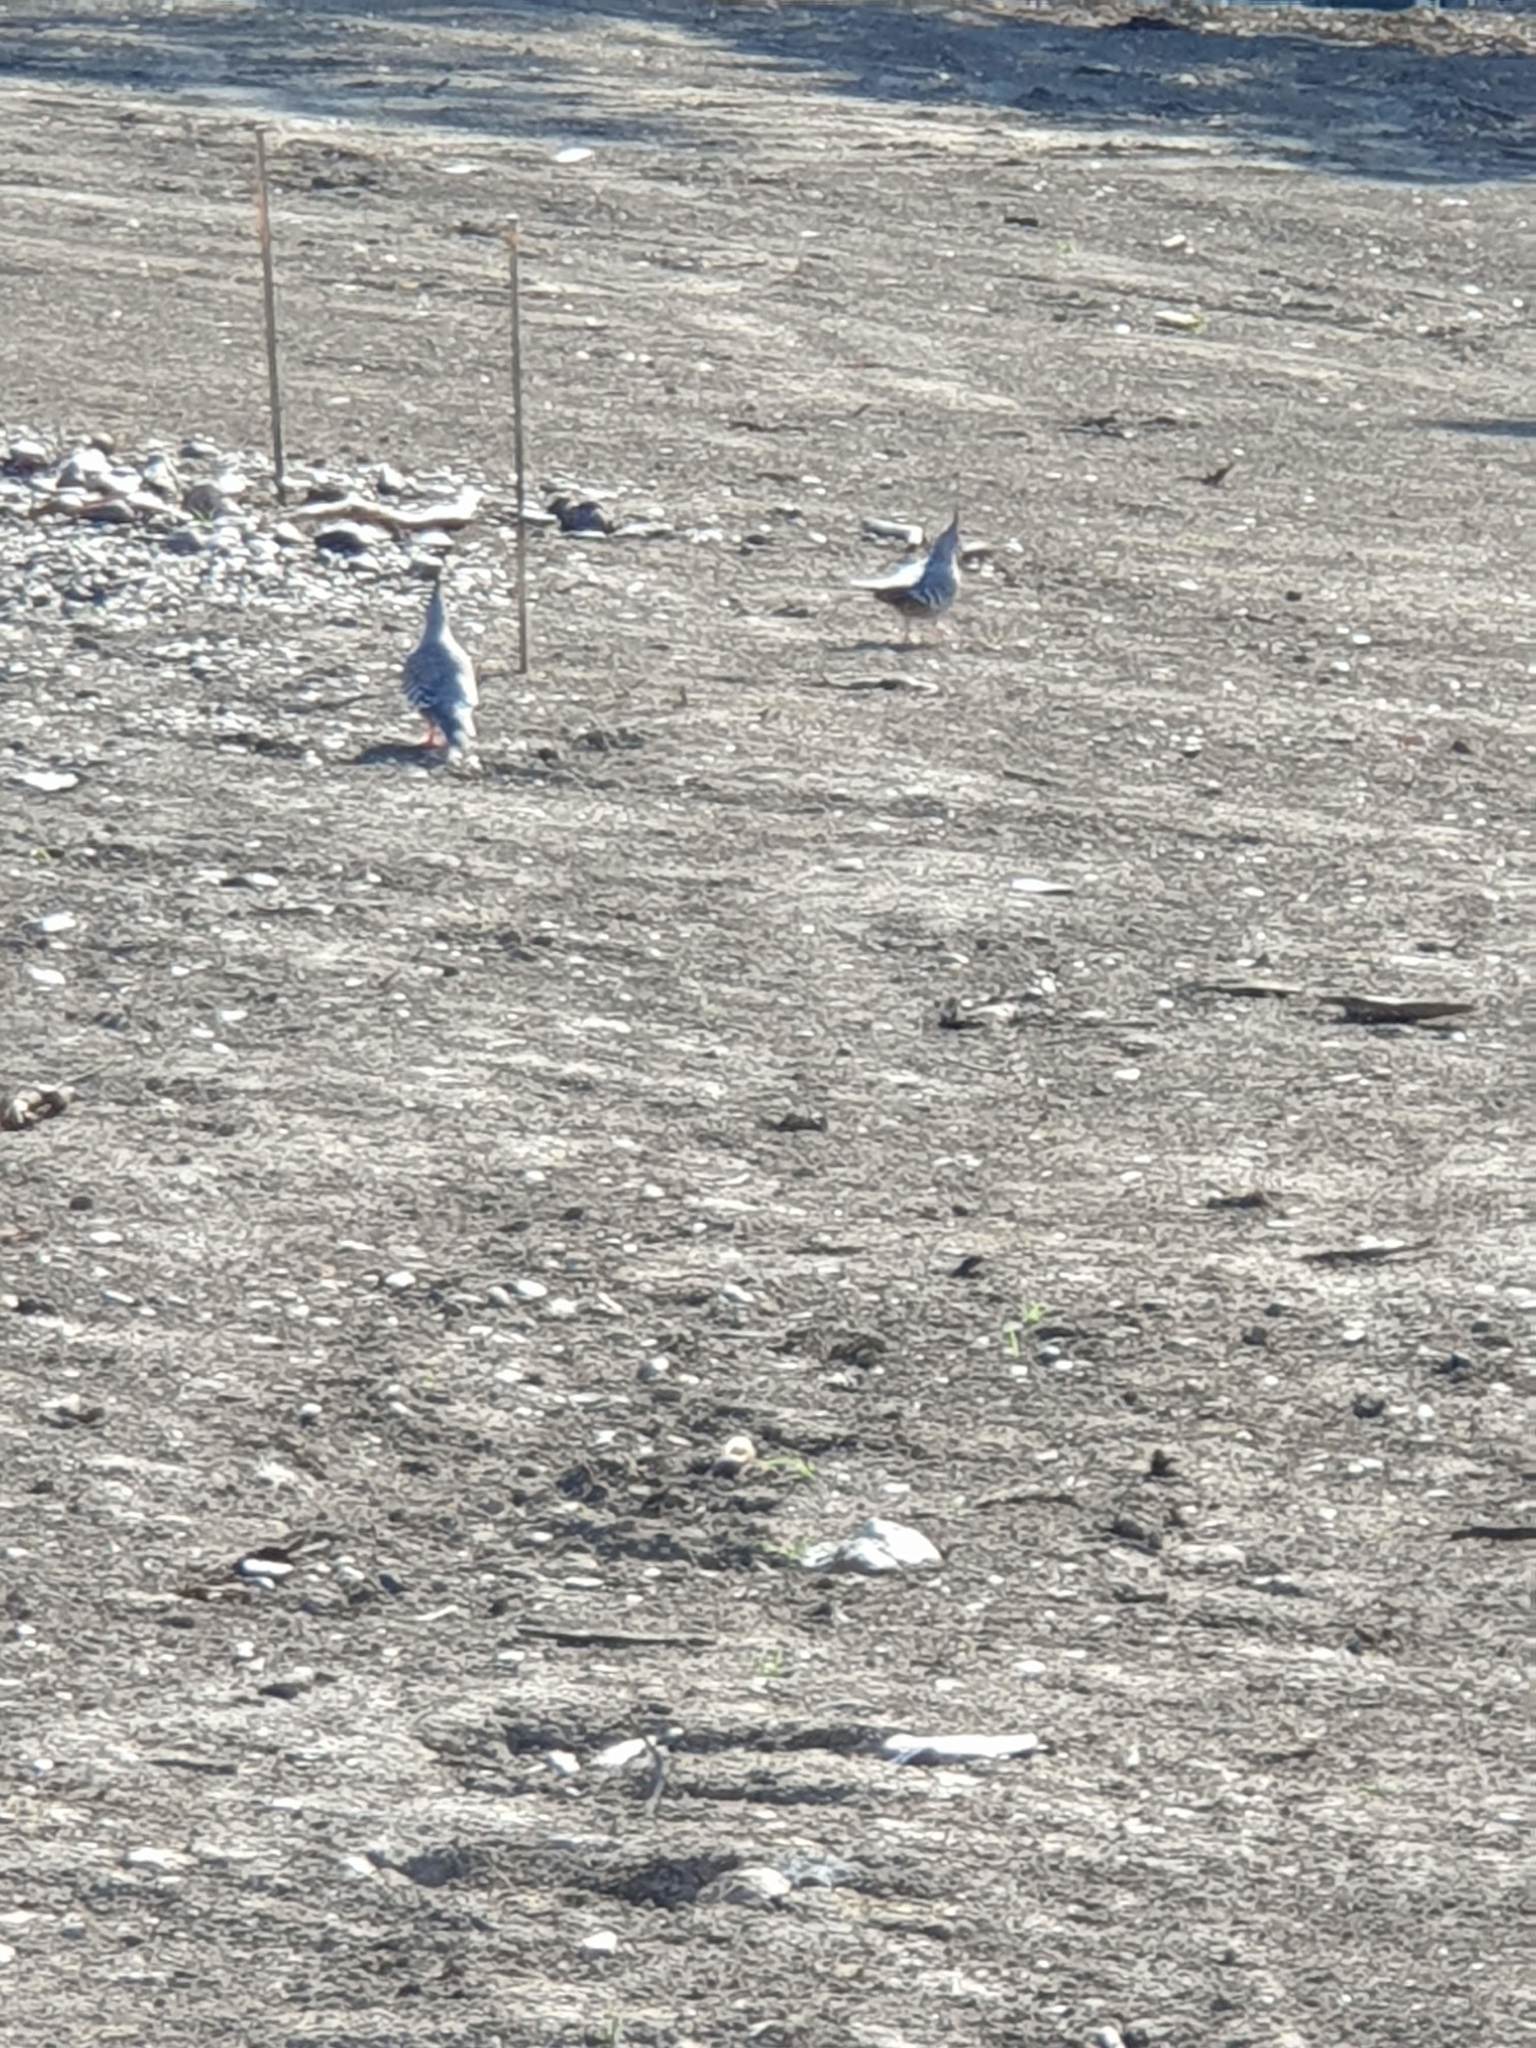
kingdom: Animalia
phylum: Chordata
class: Aves
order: Columbiformes
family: Columbidae
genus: Ocyphaps
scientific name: Ocyphaps lophotes
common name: Crested pigeon
